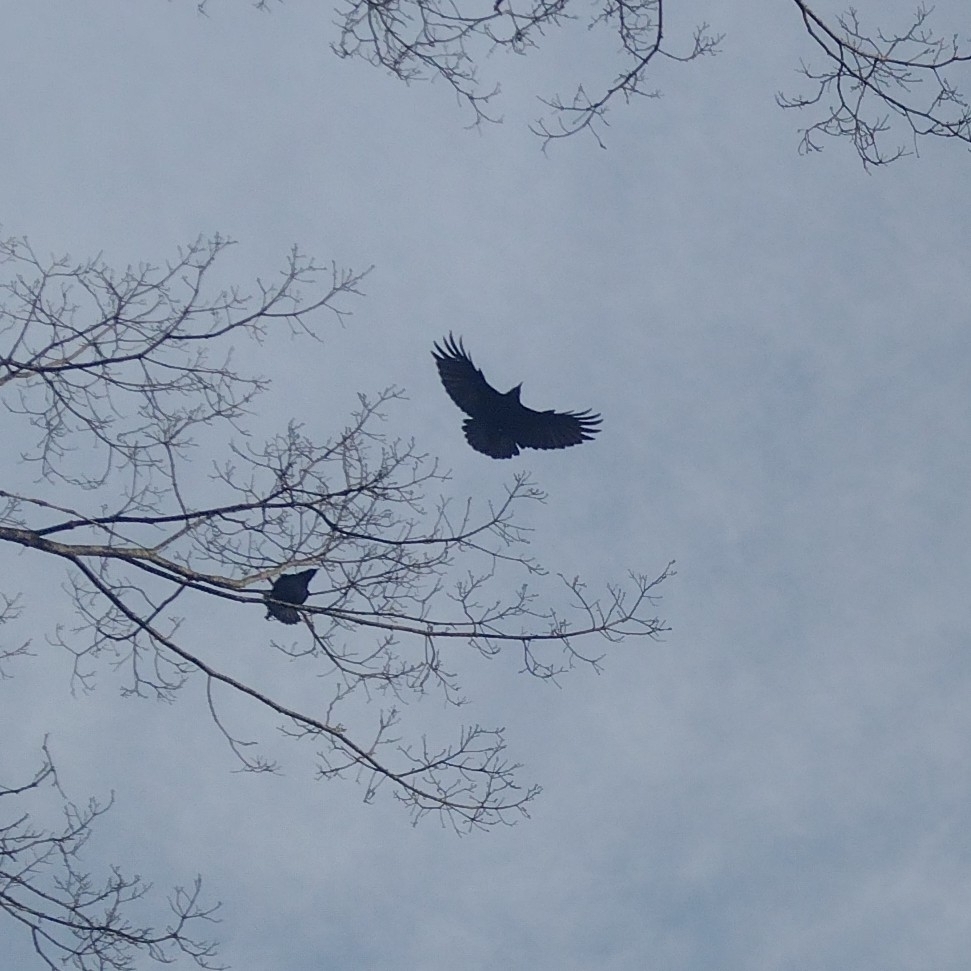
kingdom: Animalia
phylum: Chordata
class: Aves
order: Passeriformes
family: Corvidae
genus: Corvus
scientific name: Corvus brachyrhynchos
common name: American crow
